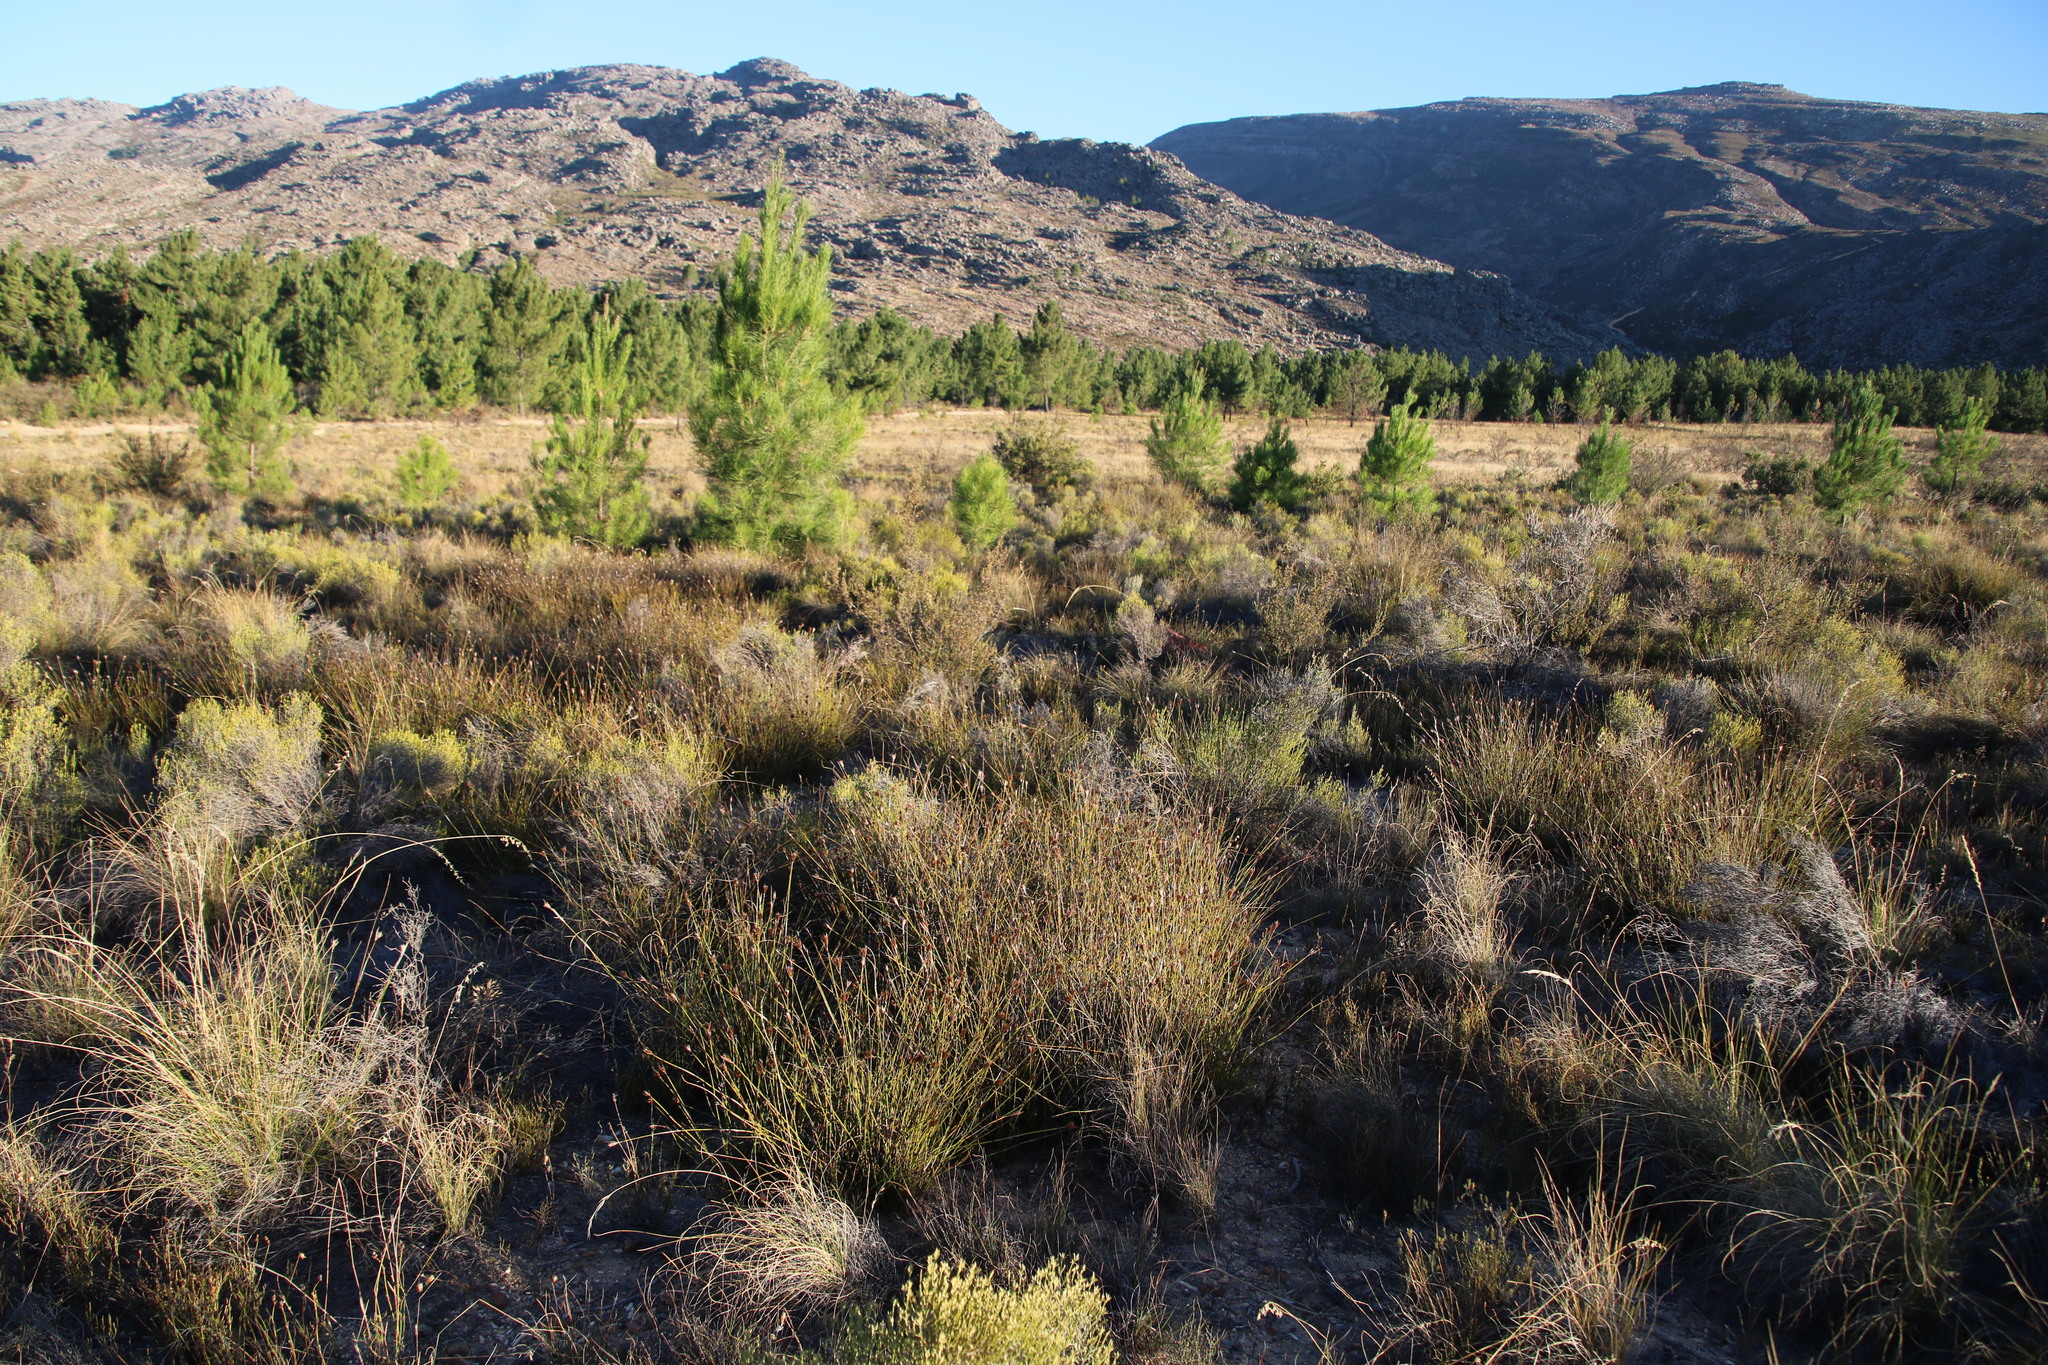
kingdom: Plantae
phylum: Tracheophyta
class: Pinopsida
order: Pinales
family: Pinaceae
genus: Pinus
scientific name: Pinus halepensis
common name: Aleppo pine
